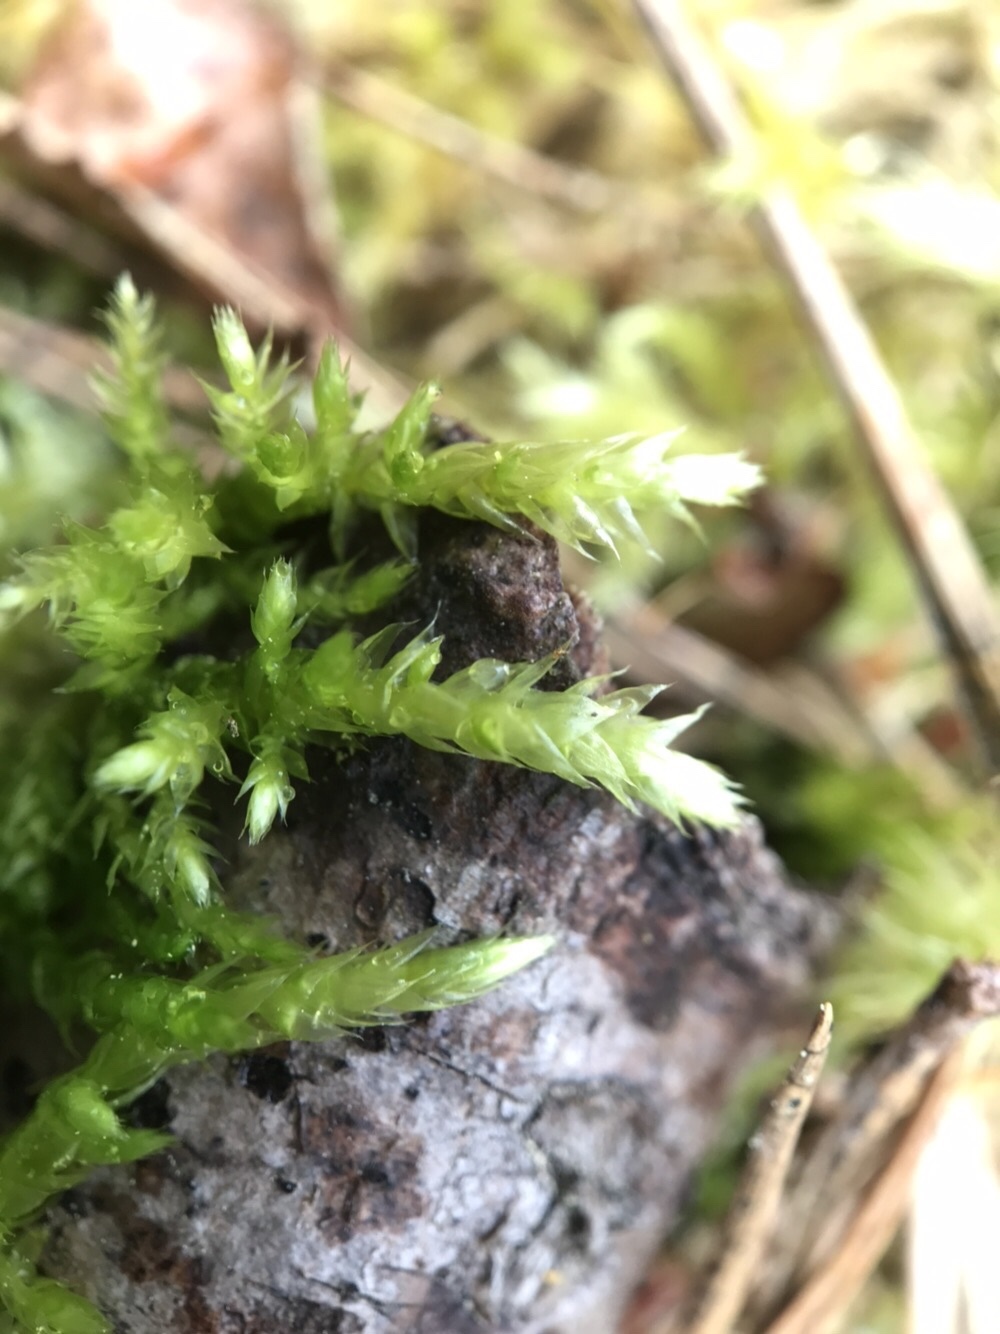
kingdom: Plantae
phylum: Bryophyta
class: Bryopsida
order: Hypnales
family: Brachytheciaceae
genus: Brachythecium
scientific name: Brachythecium rutabulum
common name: Rough-stalked feather-moss
